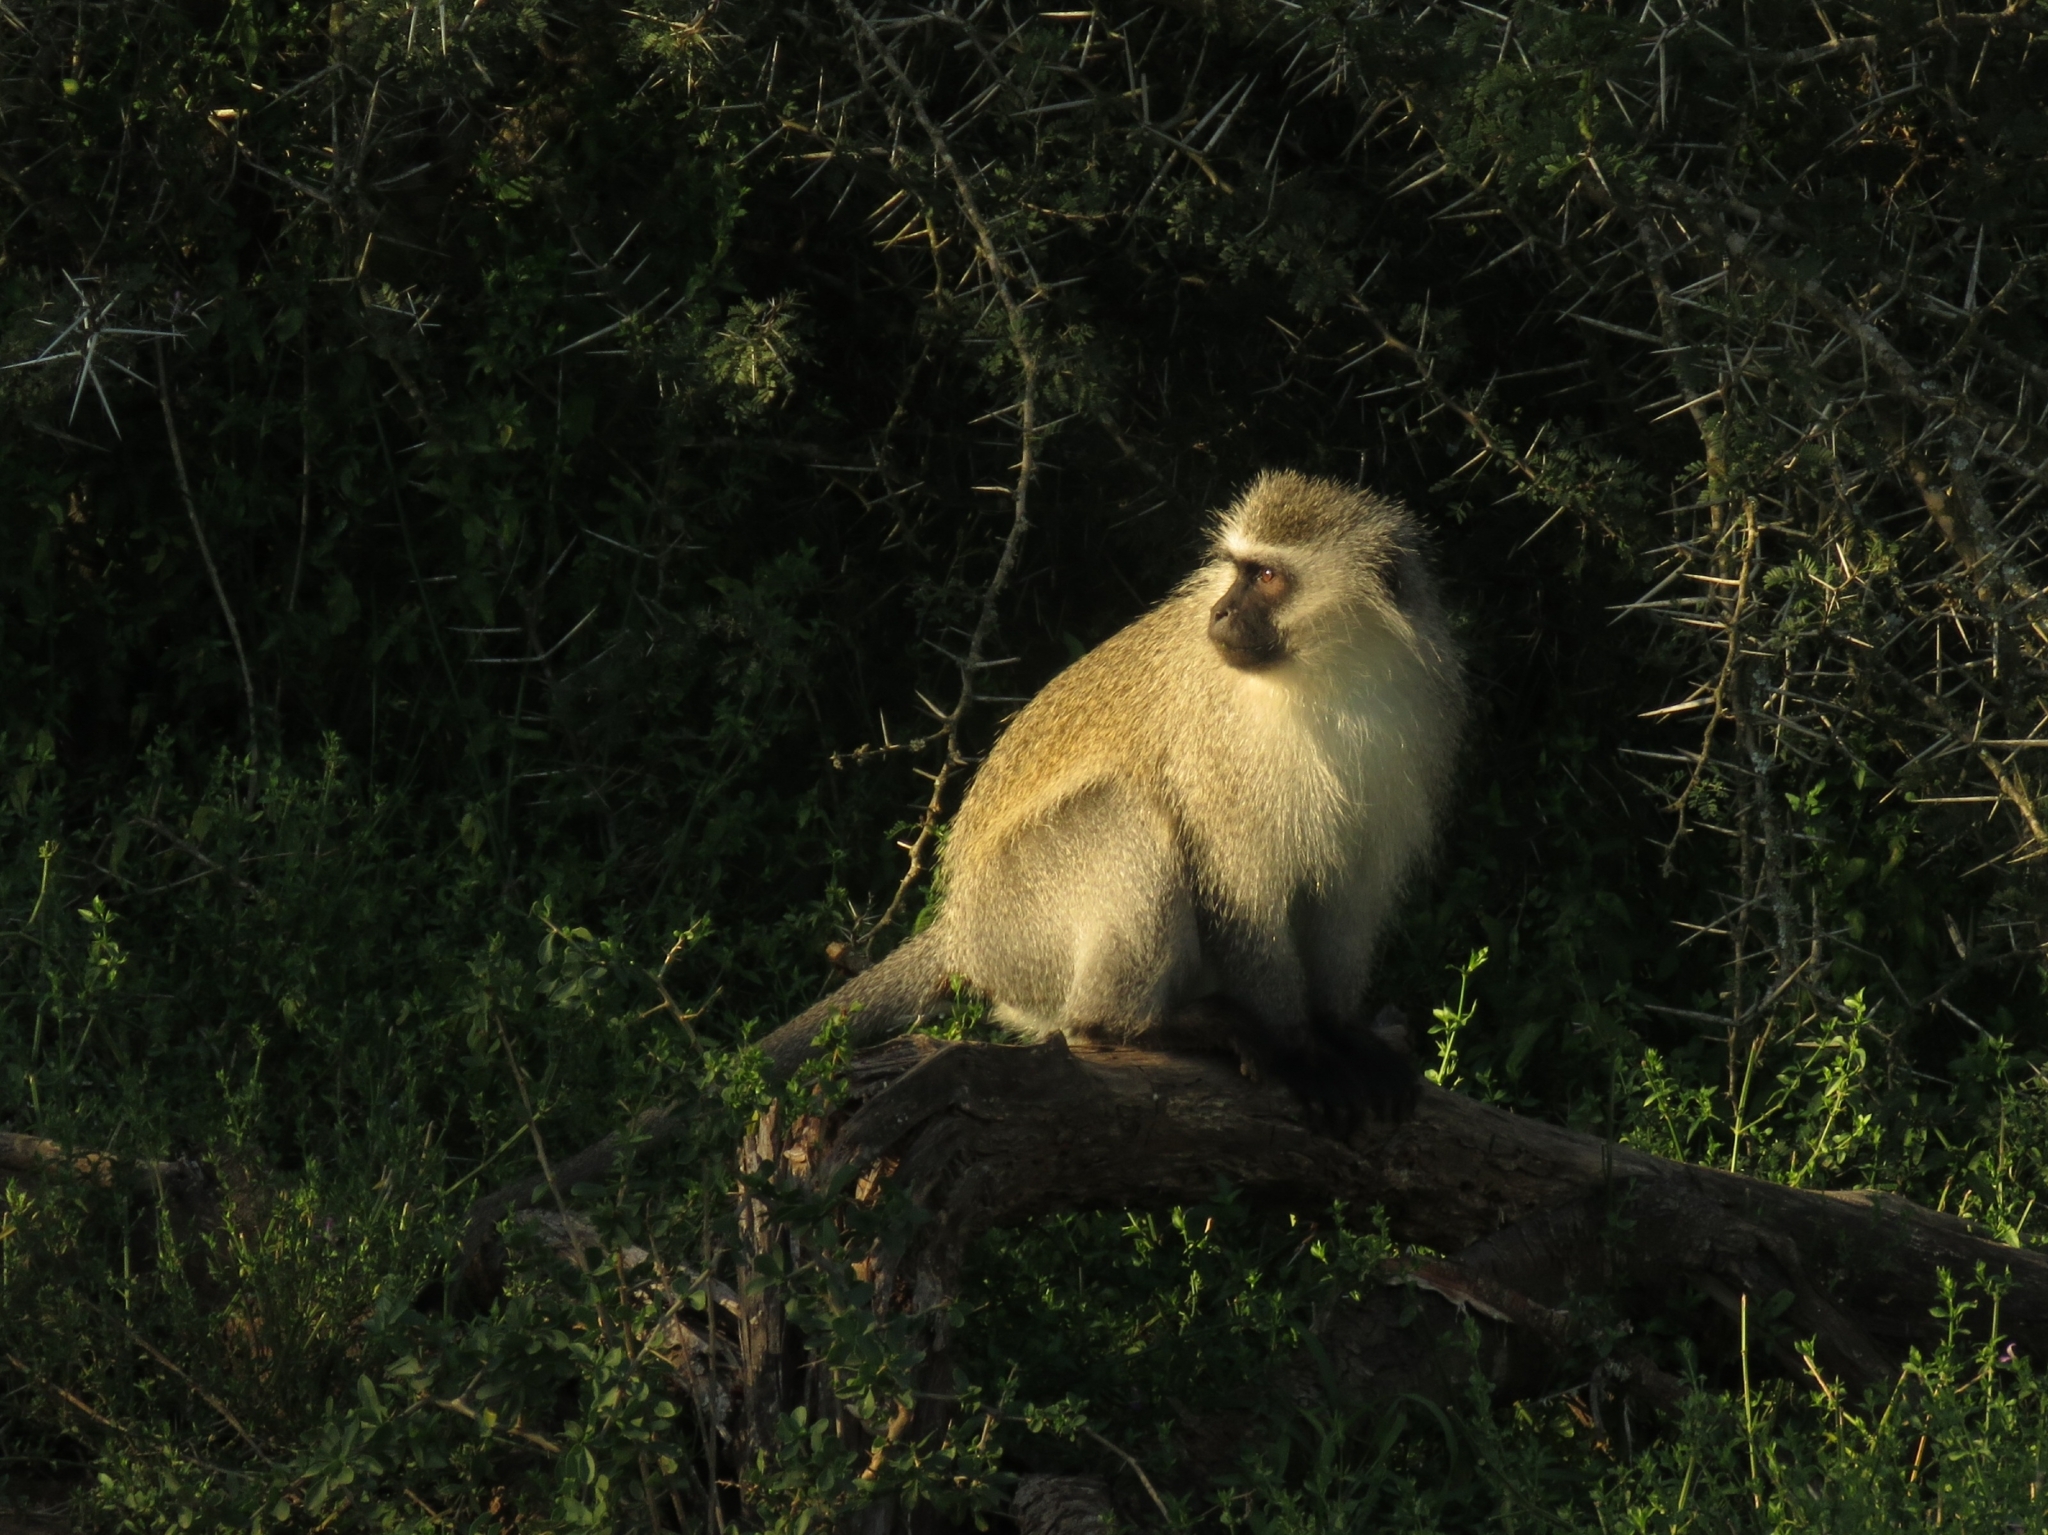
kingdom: Animalia
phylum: Chordata
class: Mammalia
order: Primates
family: Cercopithecidae
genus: Chlorocebus
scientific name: Chlorocebus pygerythrus
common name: Vervet monkey
